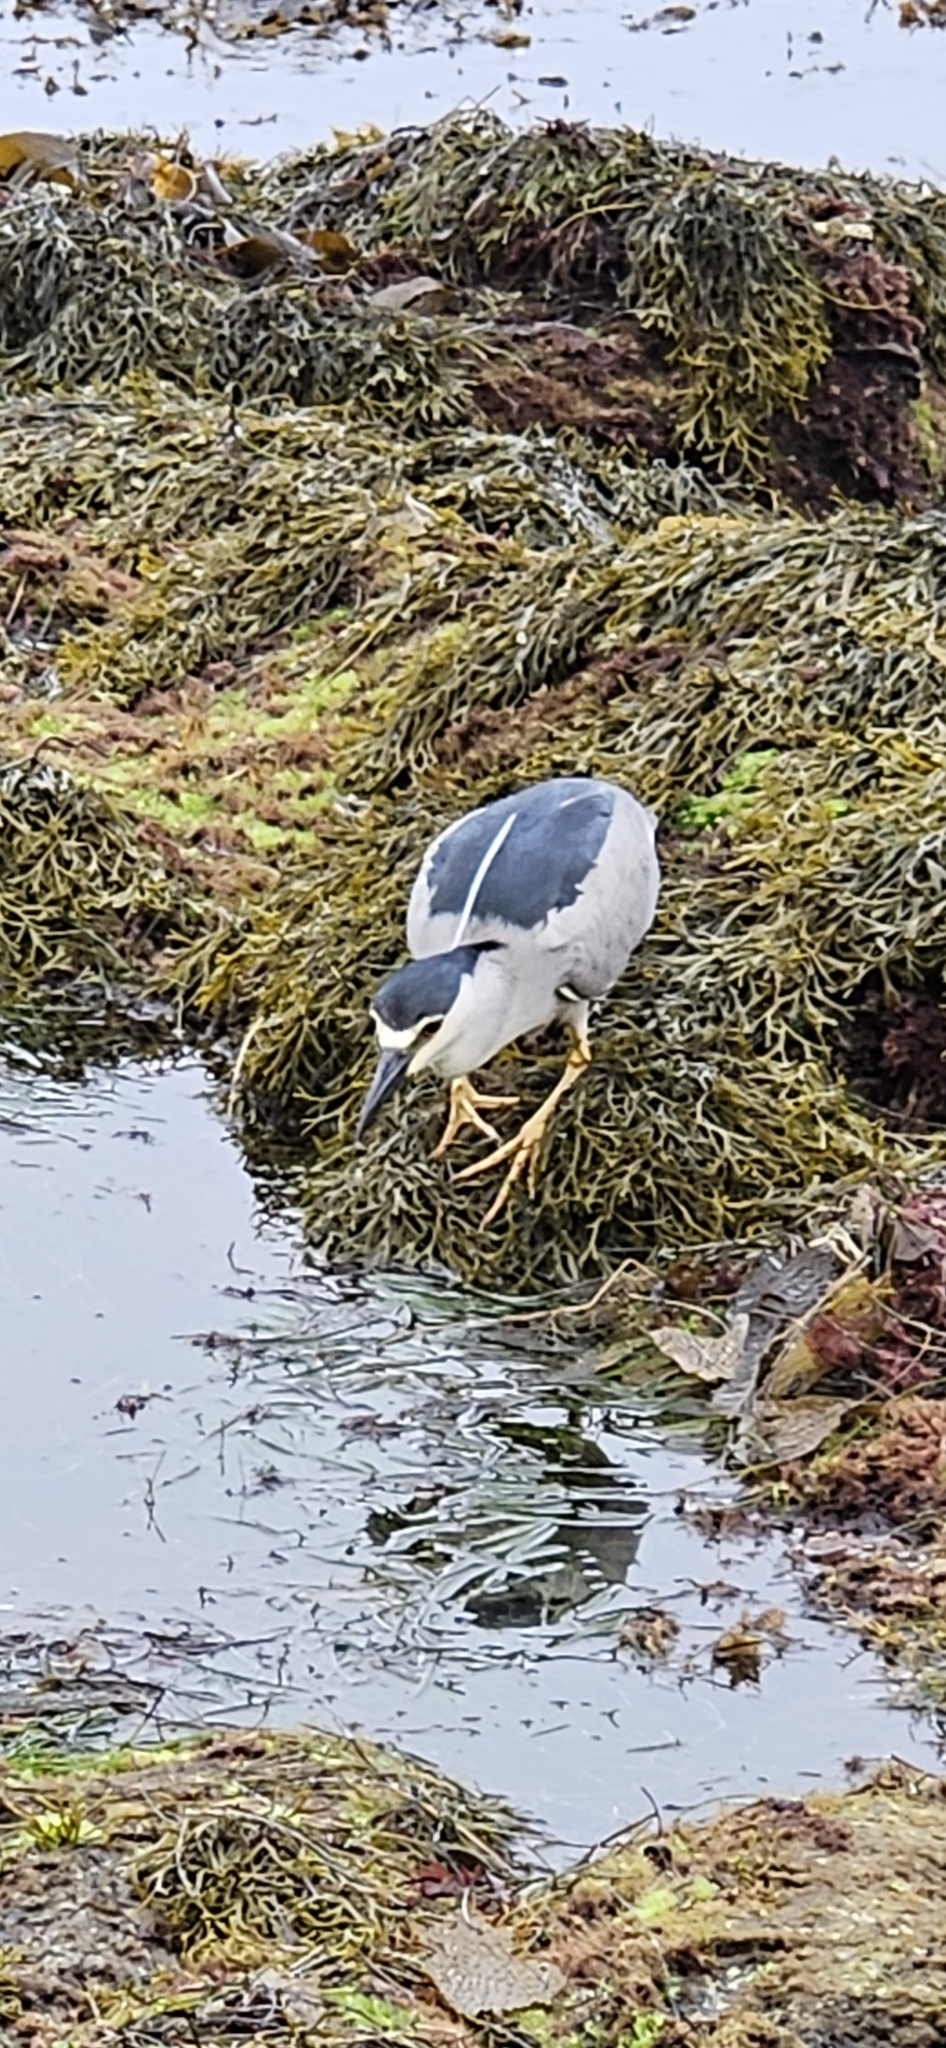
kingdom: Animalia
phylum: Chordata
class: Aves
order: Pelecaniformes
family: Ardeidae
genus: Nycticorax
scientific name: Nycticorax nycticorax
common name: Black-crowned night heron
